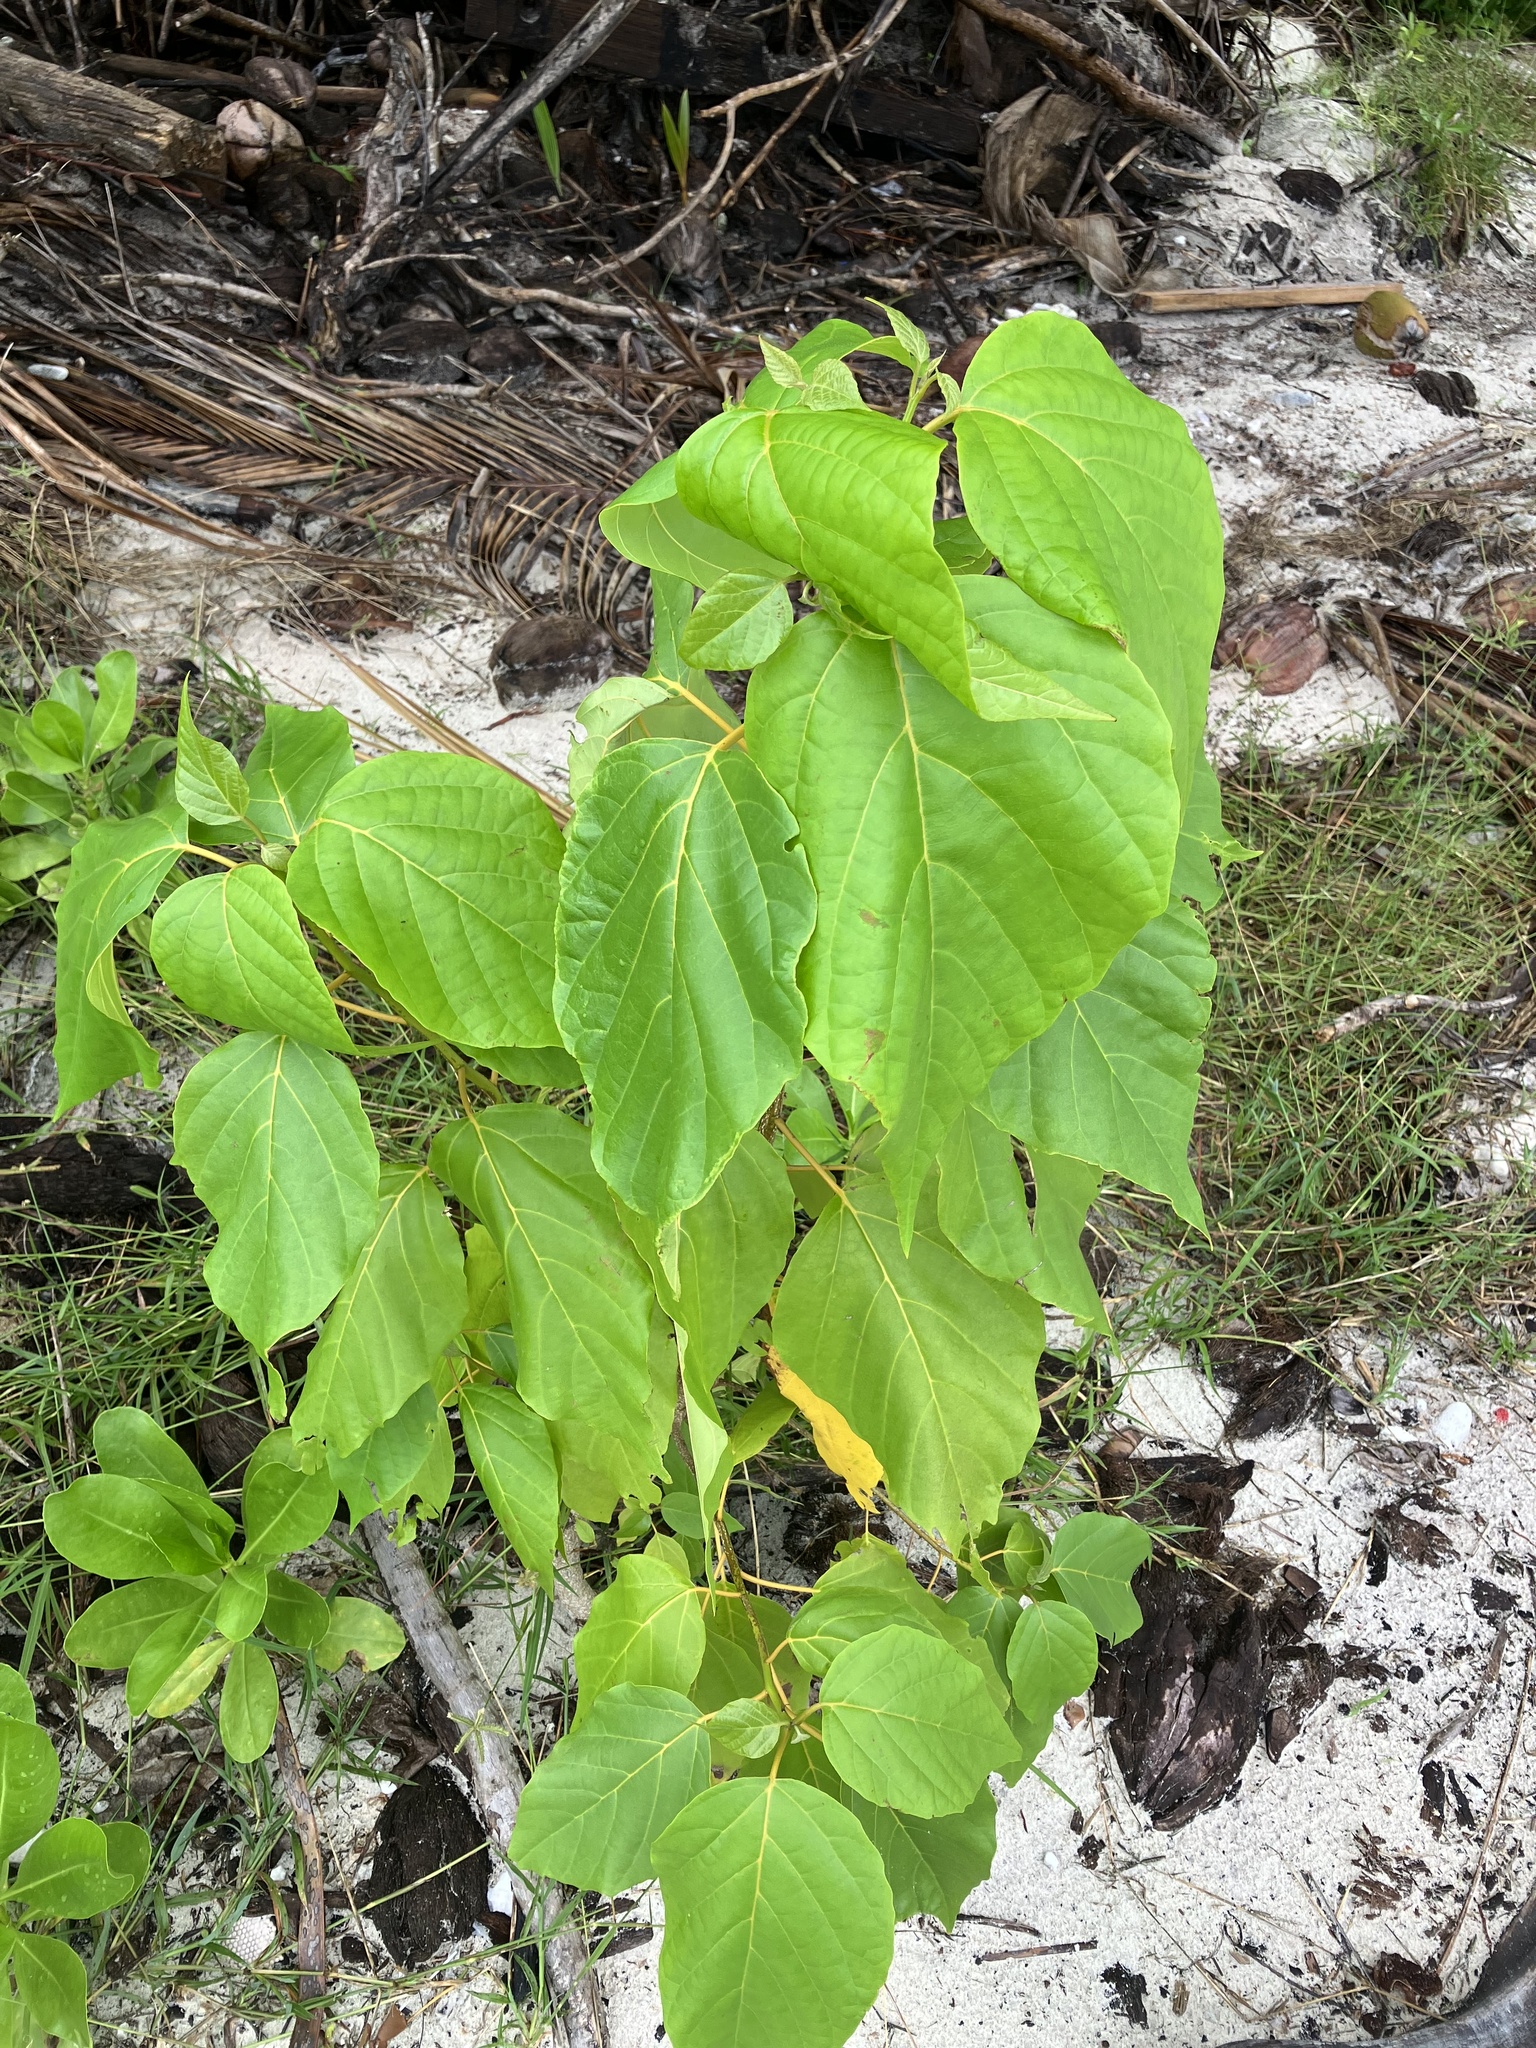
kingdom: Plantae
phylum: Tracheophyta
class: Magnoliopsida
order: Boraginales
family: Cordiaceae
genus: Cordia
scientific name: Cordia subcordata
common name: Mareer
